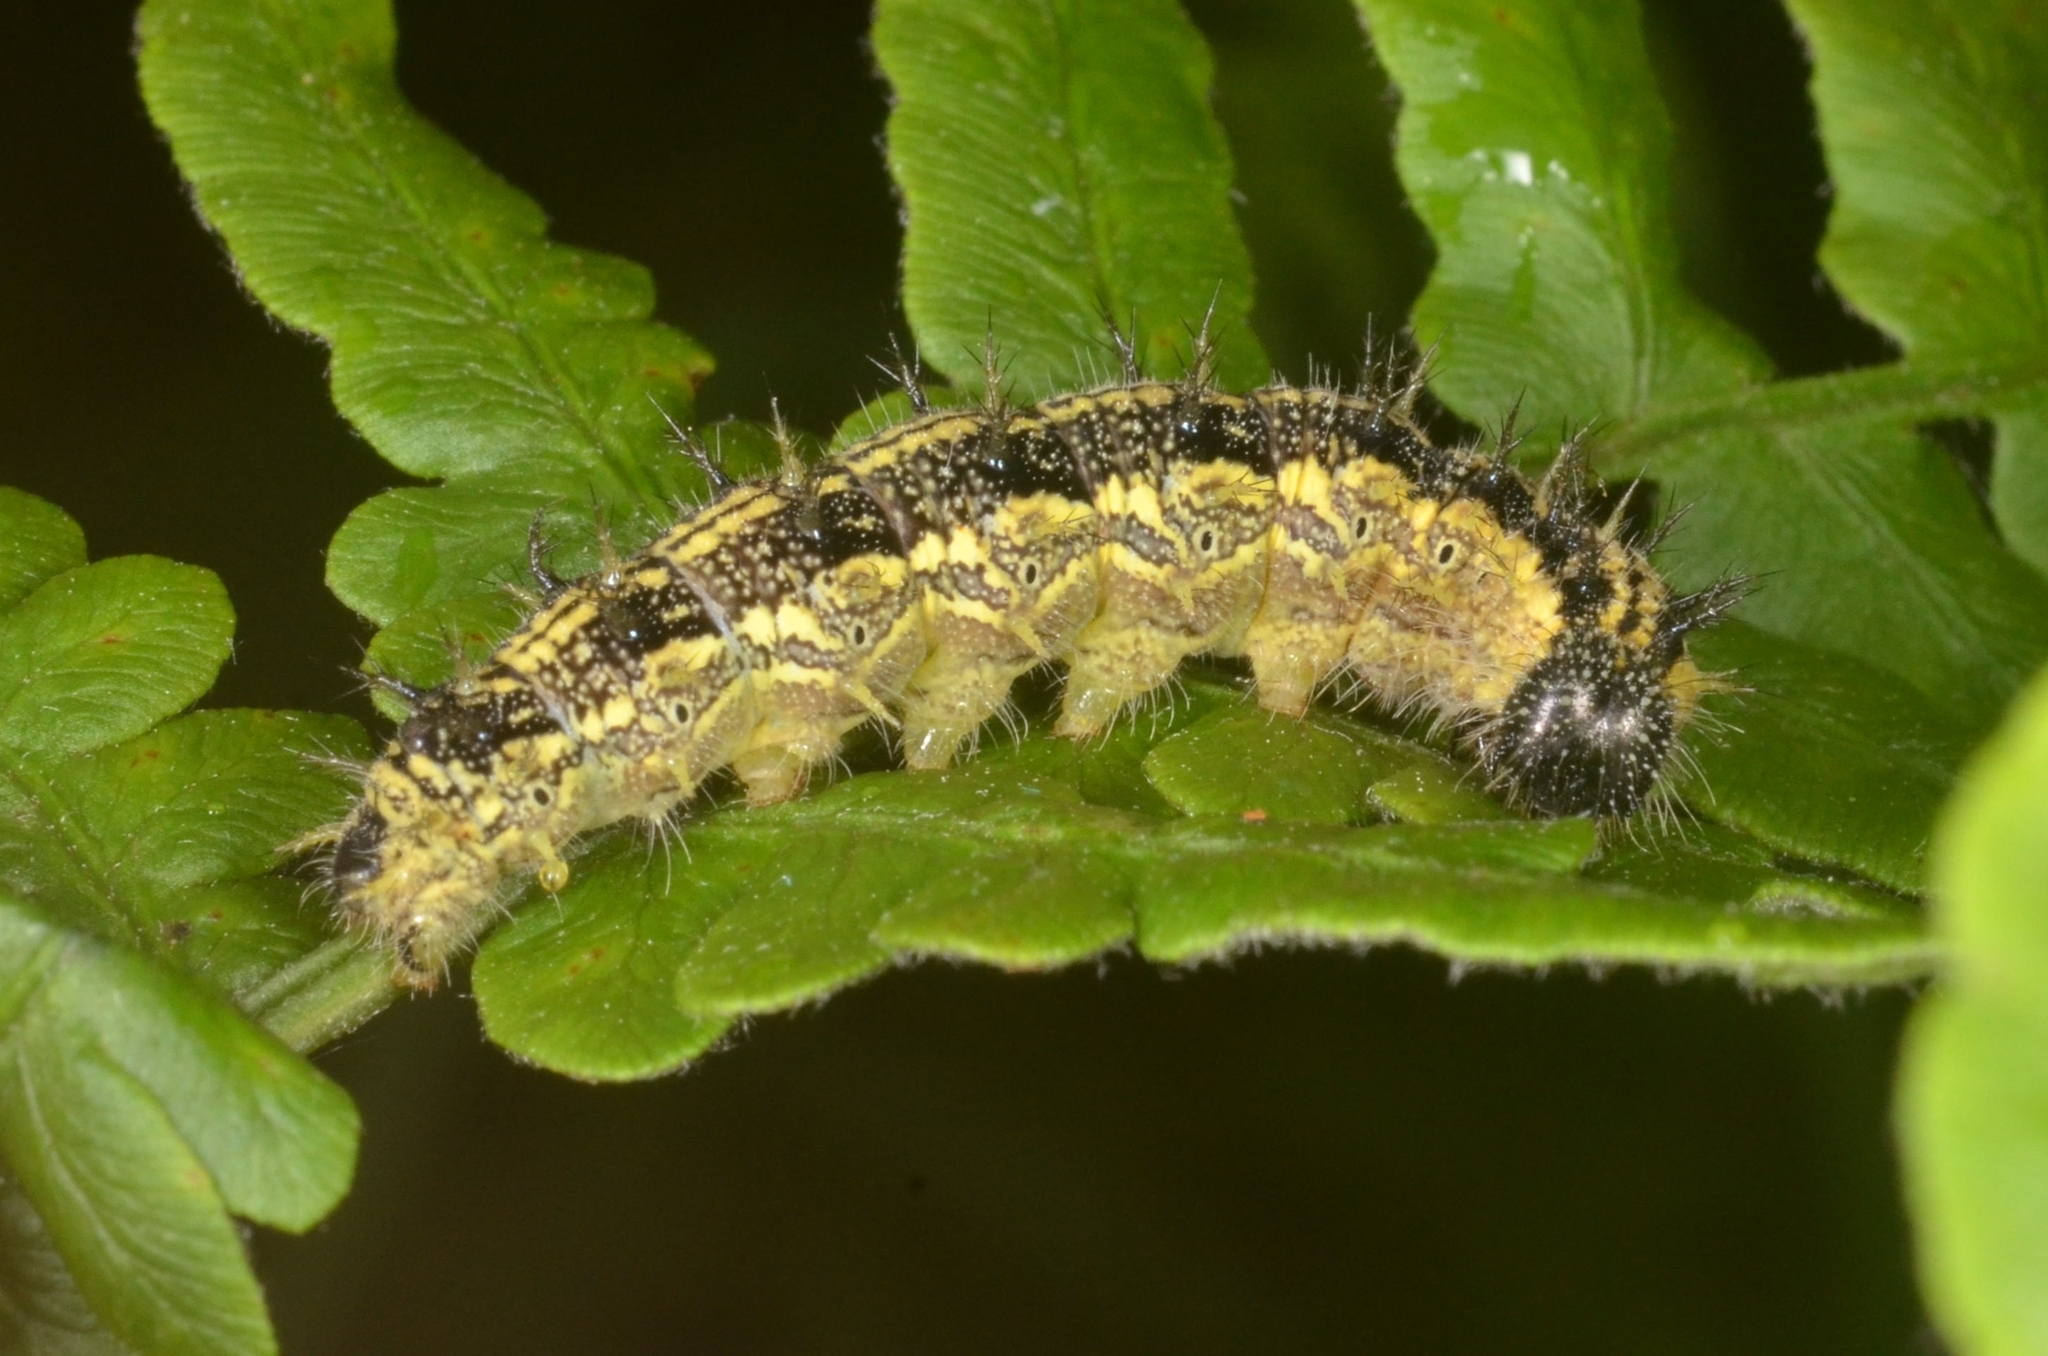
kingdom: Animalia
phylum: Arthropoda
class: Insecta
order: Lepidoptera
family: Nymphalidae
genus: Aglais
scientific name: Aglais urticae
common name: Small tortoiseshell
